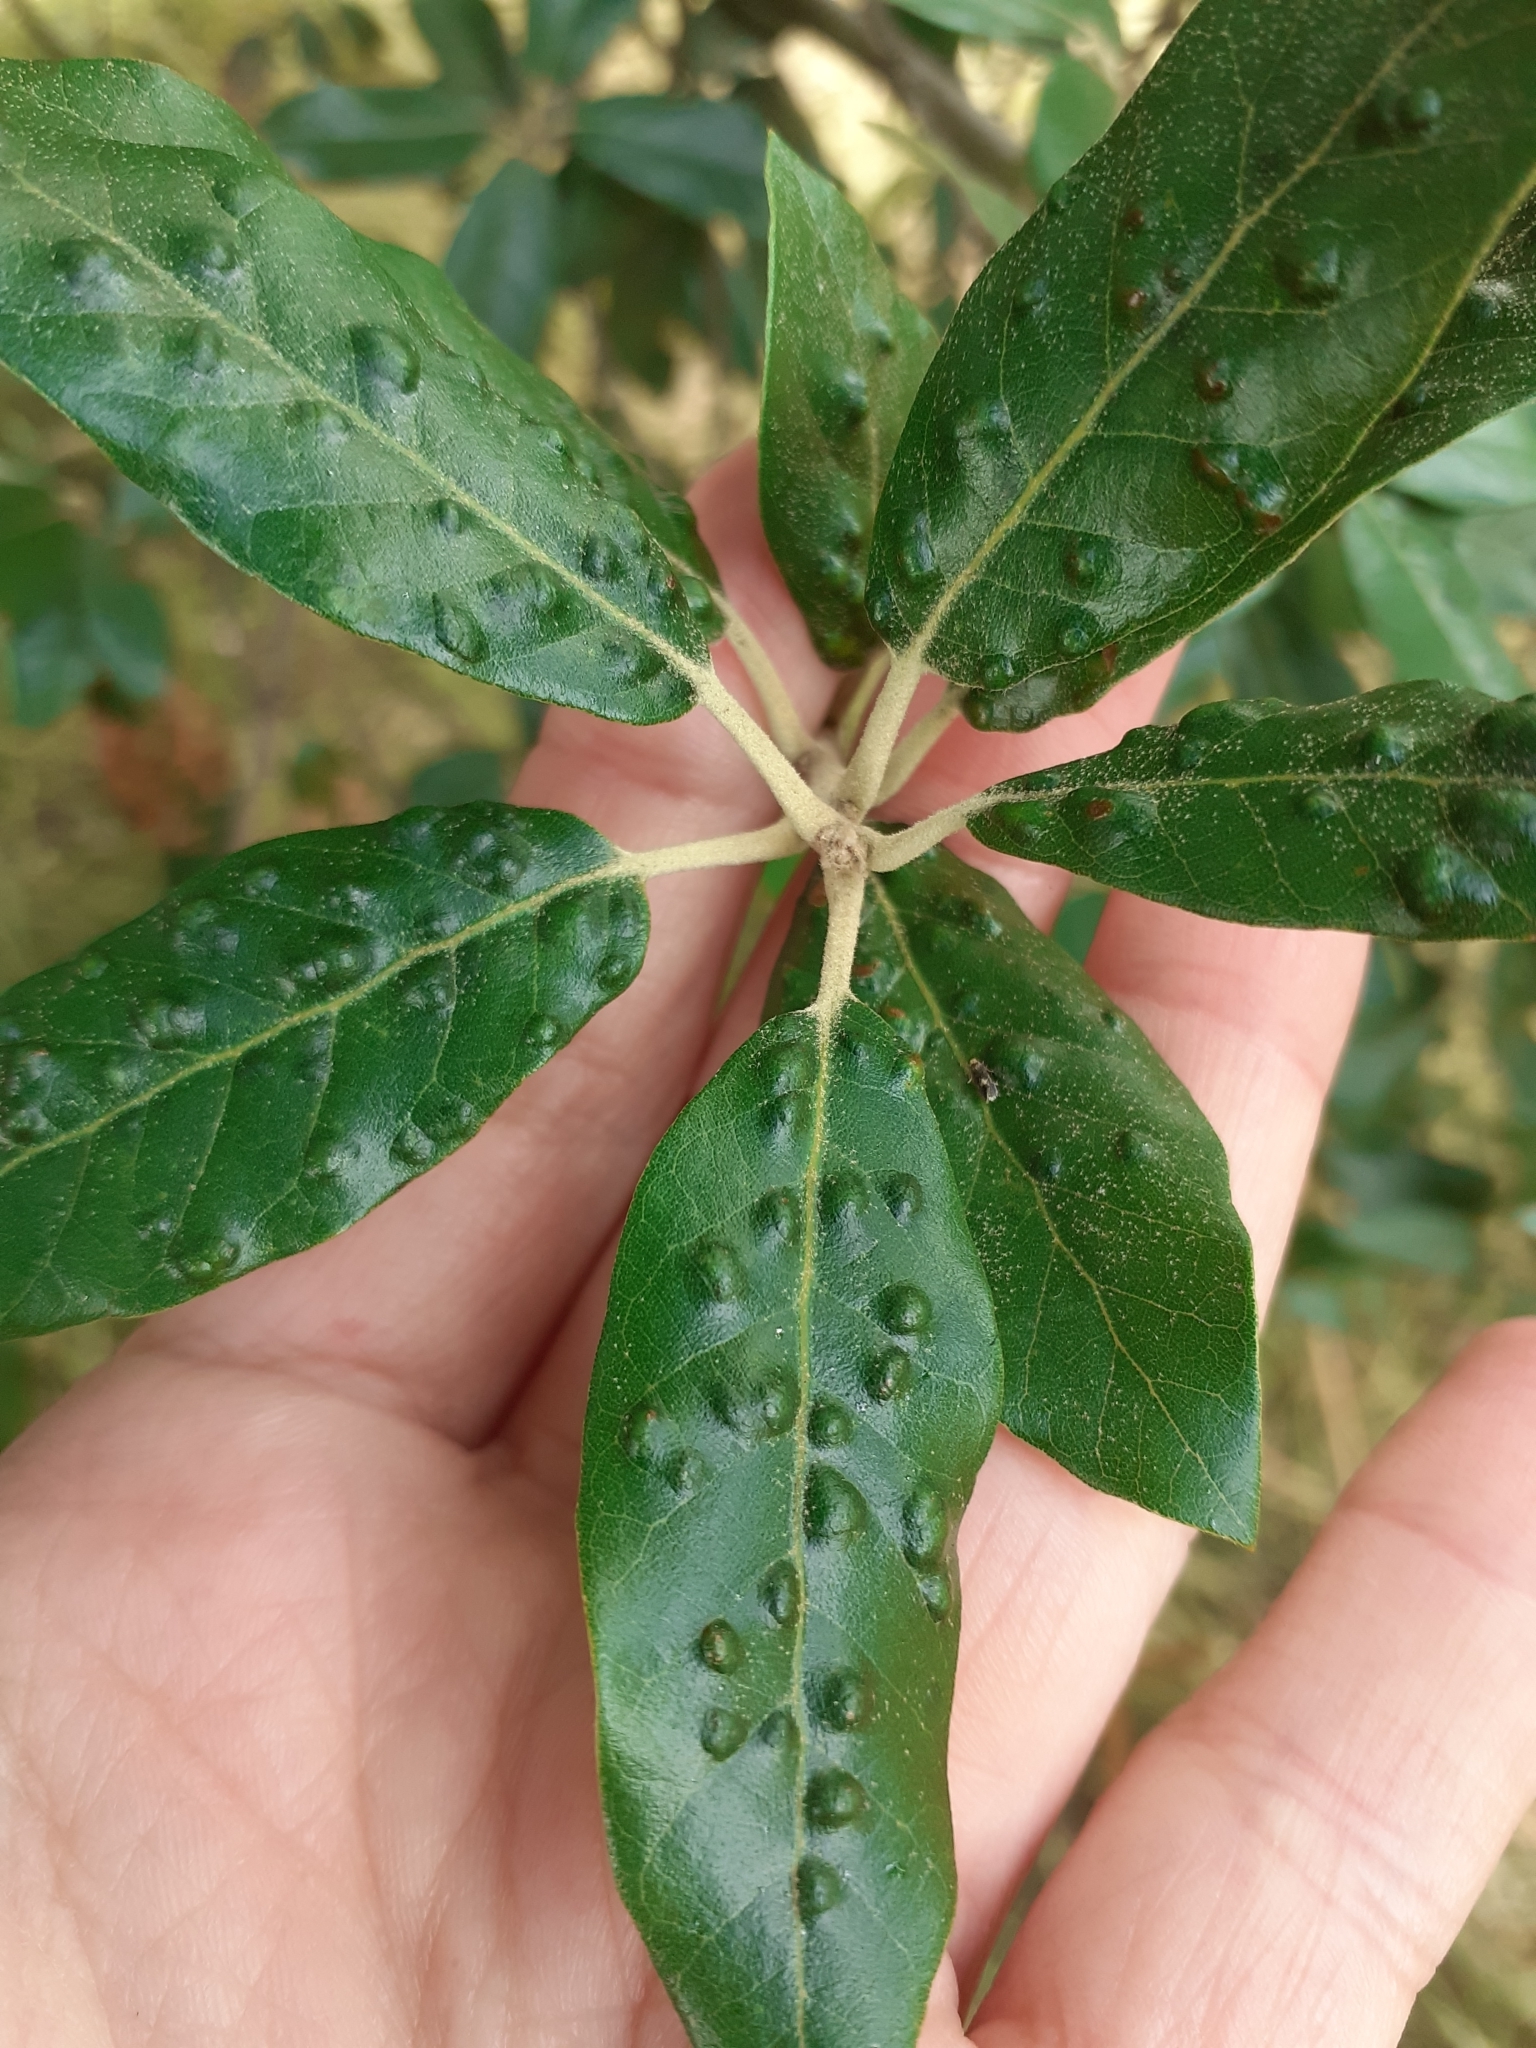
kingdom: Animalia
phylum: Arthropoda
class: Arachnida
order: Trombidiformes
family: Eriophyidae
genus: Aceria
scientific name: Aceria ilicis
